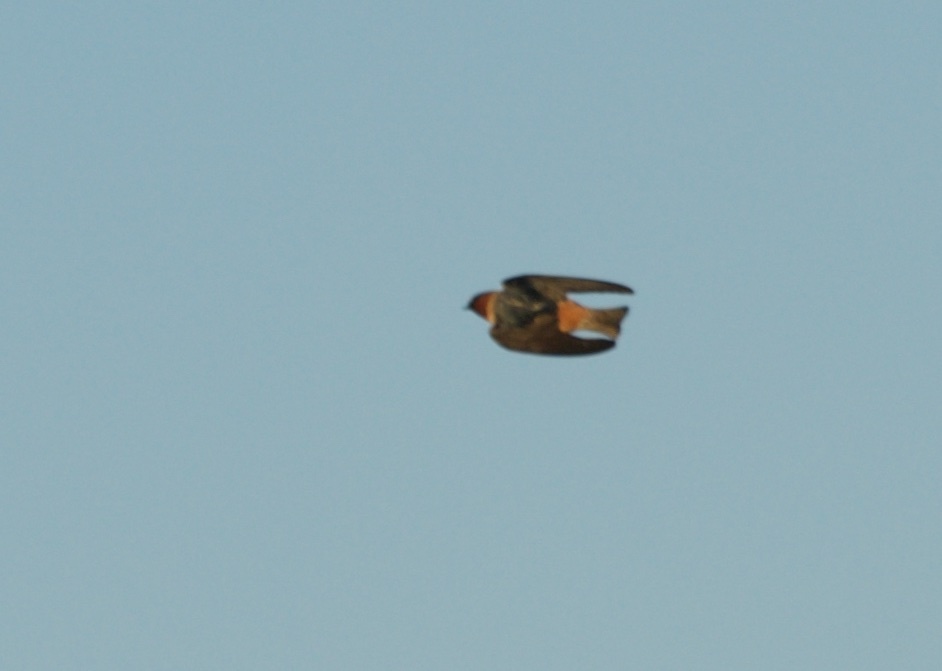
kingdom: Animalia
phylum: Chordata
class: Aves
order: Passeriformes
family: Hirundinidae
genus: Petrochelidon
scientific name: Petrochelidon pyrrhonota
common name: American cliff swallow
